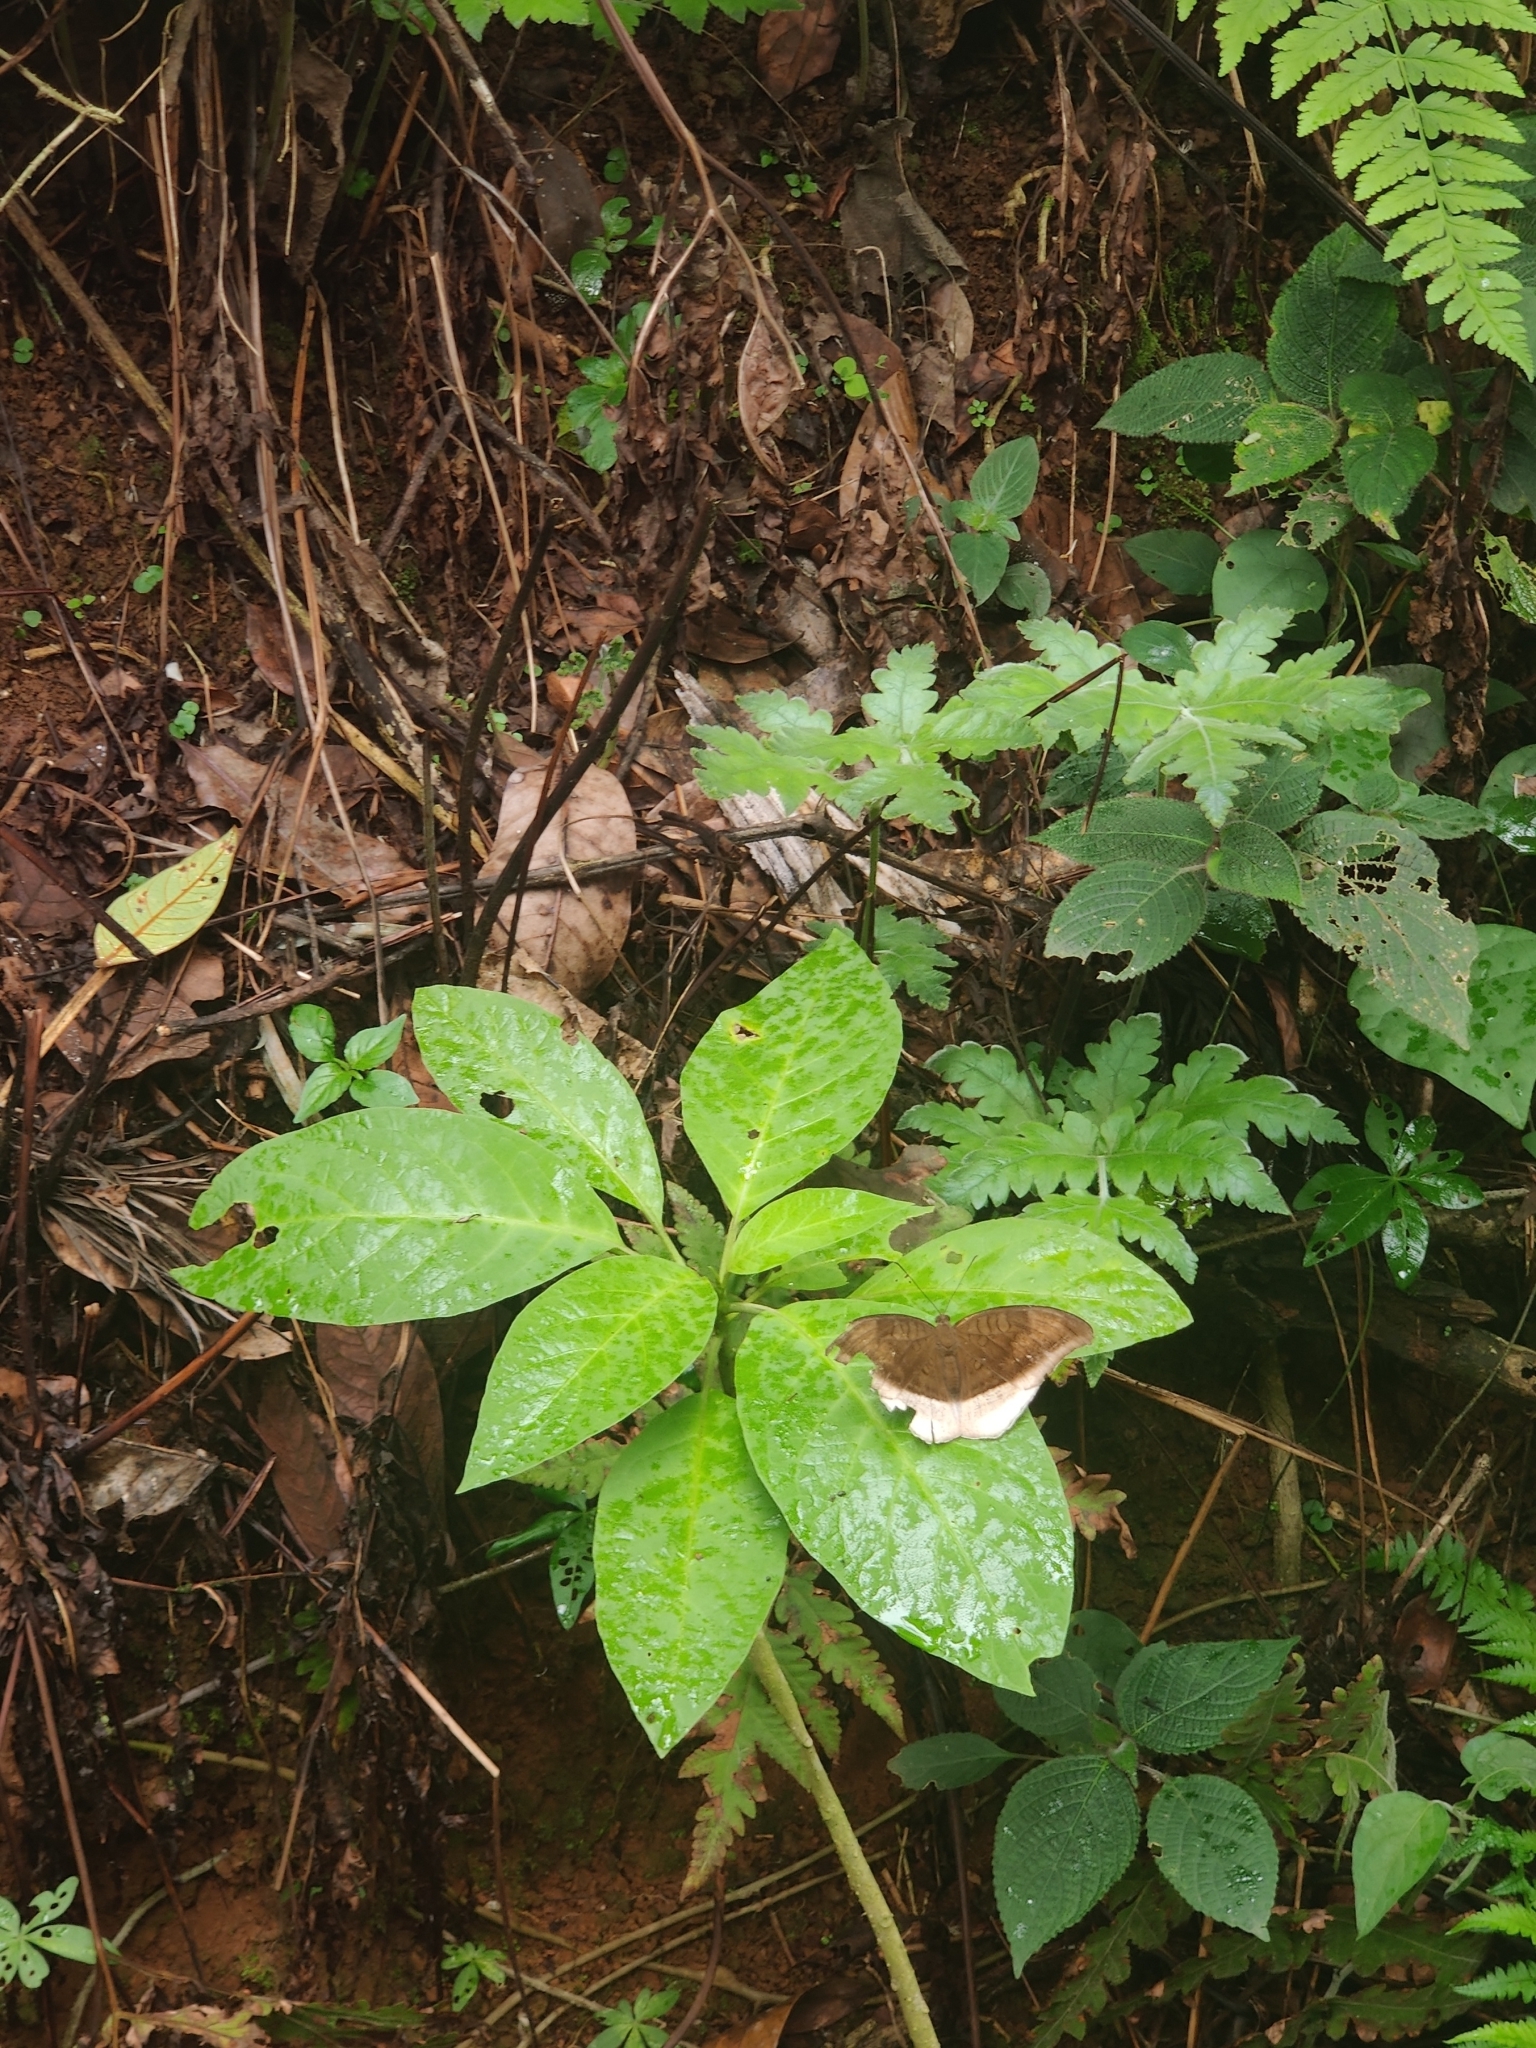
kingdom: Animalia
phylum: Arthropoda
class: Insecta
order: Lepidoptera
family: Nymphalidae
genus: Tanaecia
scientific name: Tanaecia lepidea
